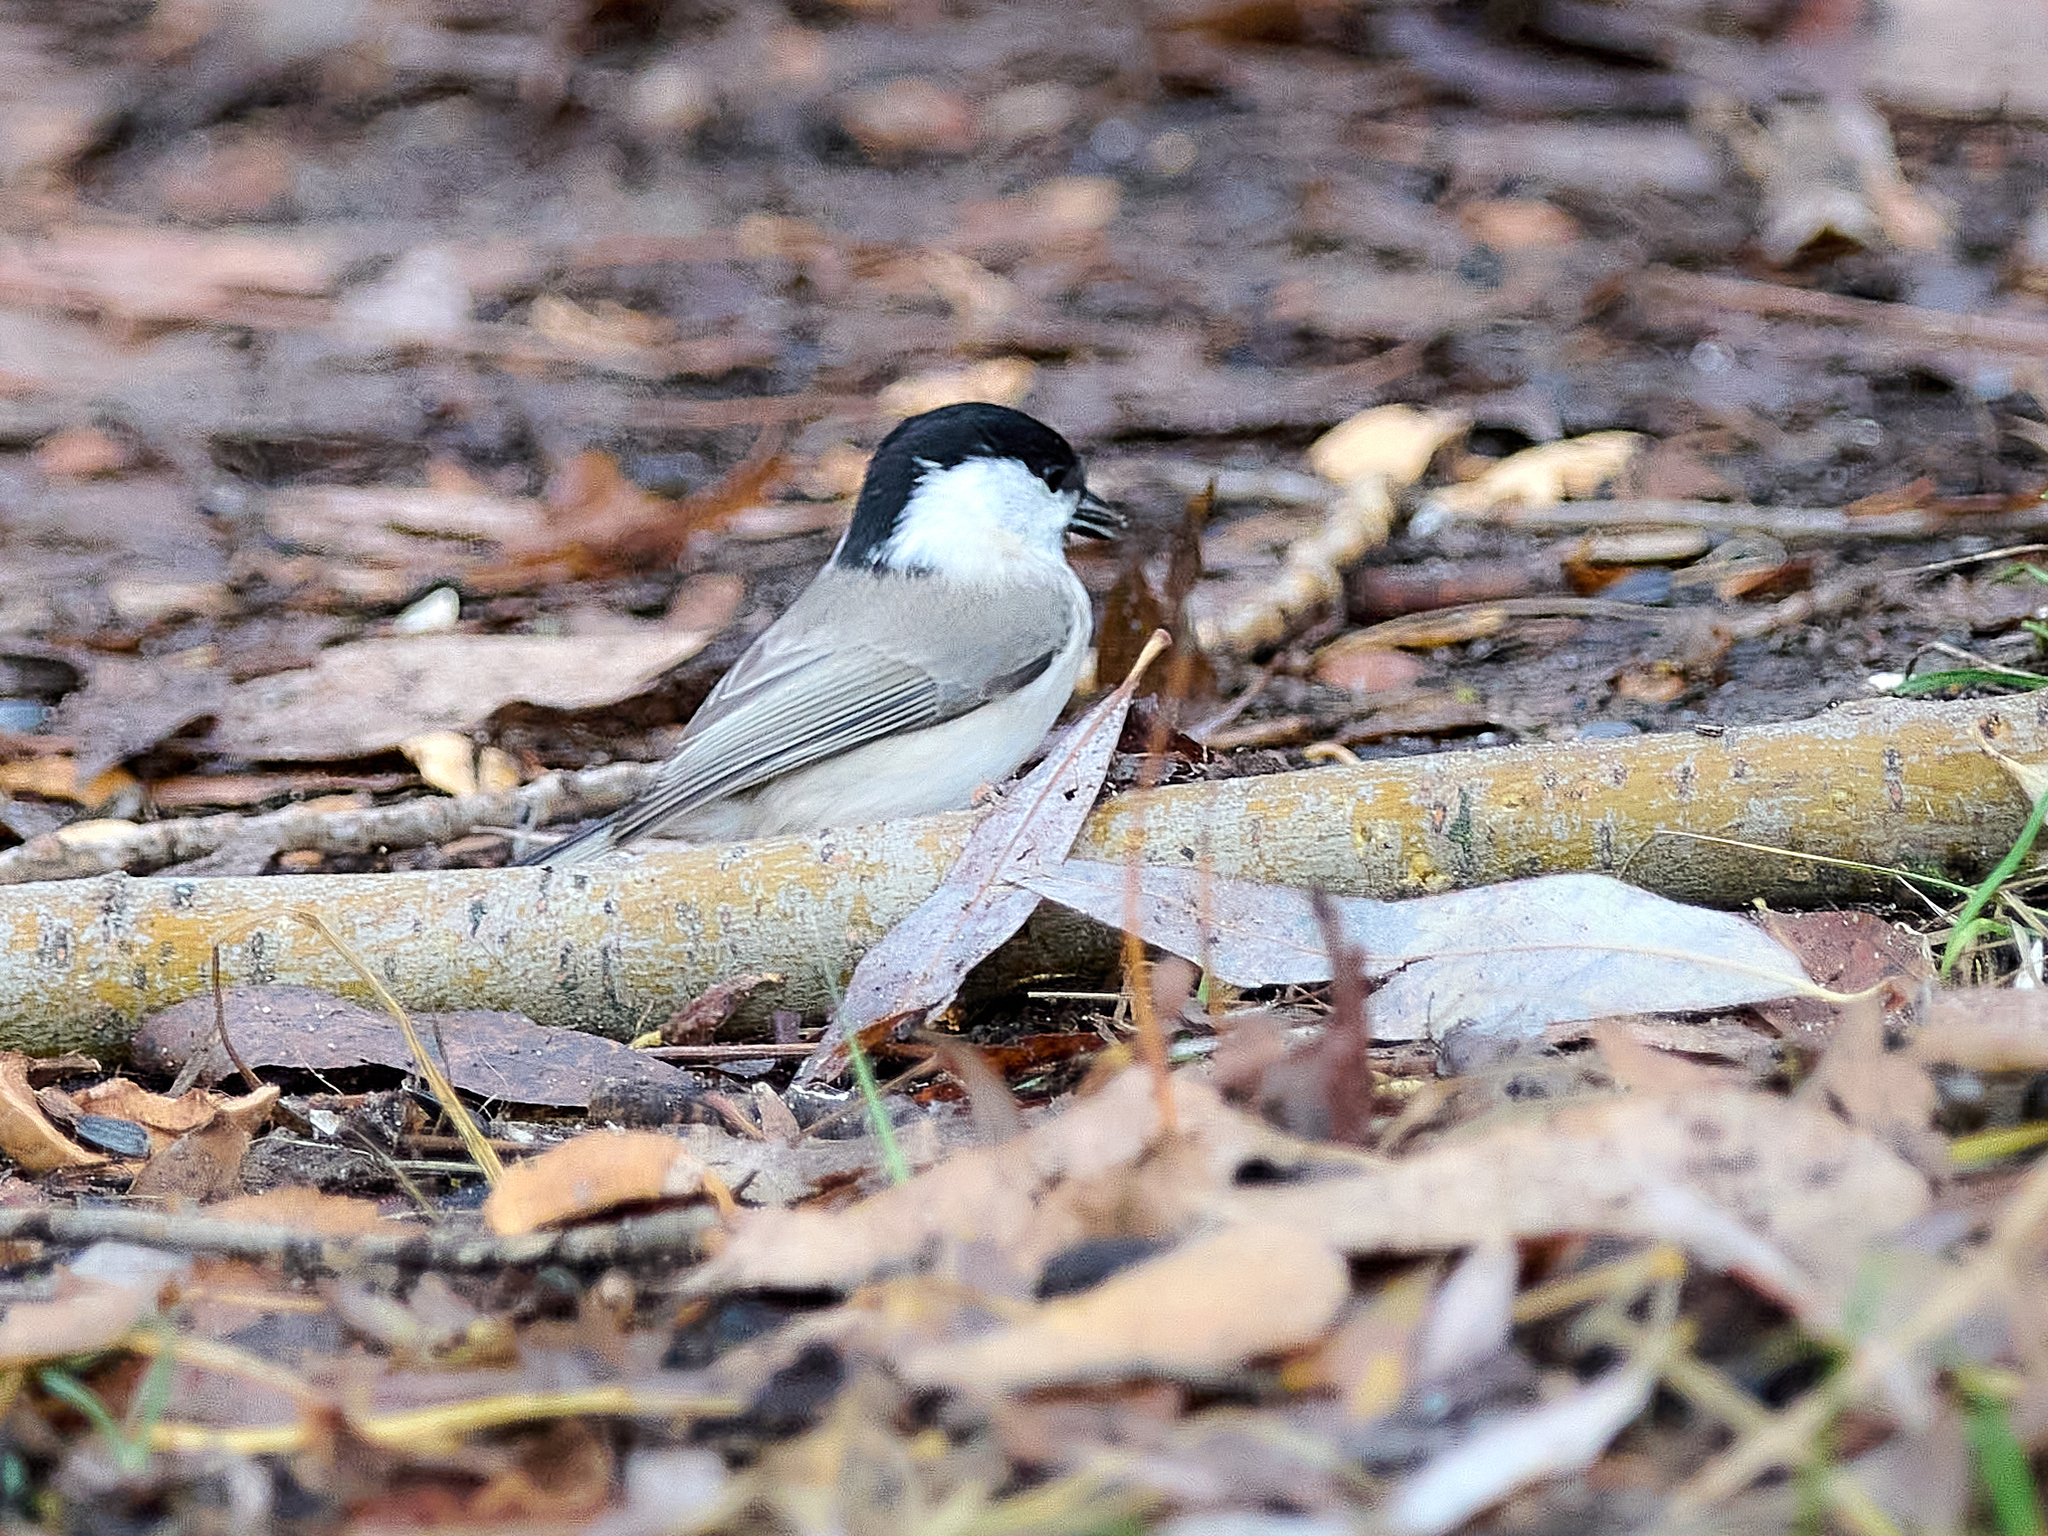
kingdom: Animalia
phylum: Chordata
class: Aves
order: Passeriformes
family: Paridae
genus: Poecile
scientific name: Poecile palustris
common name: Marsh tit
